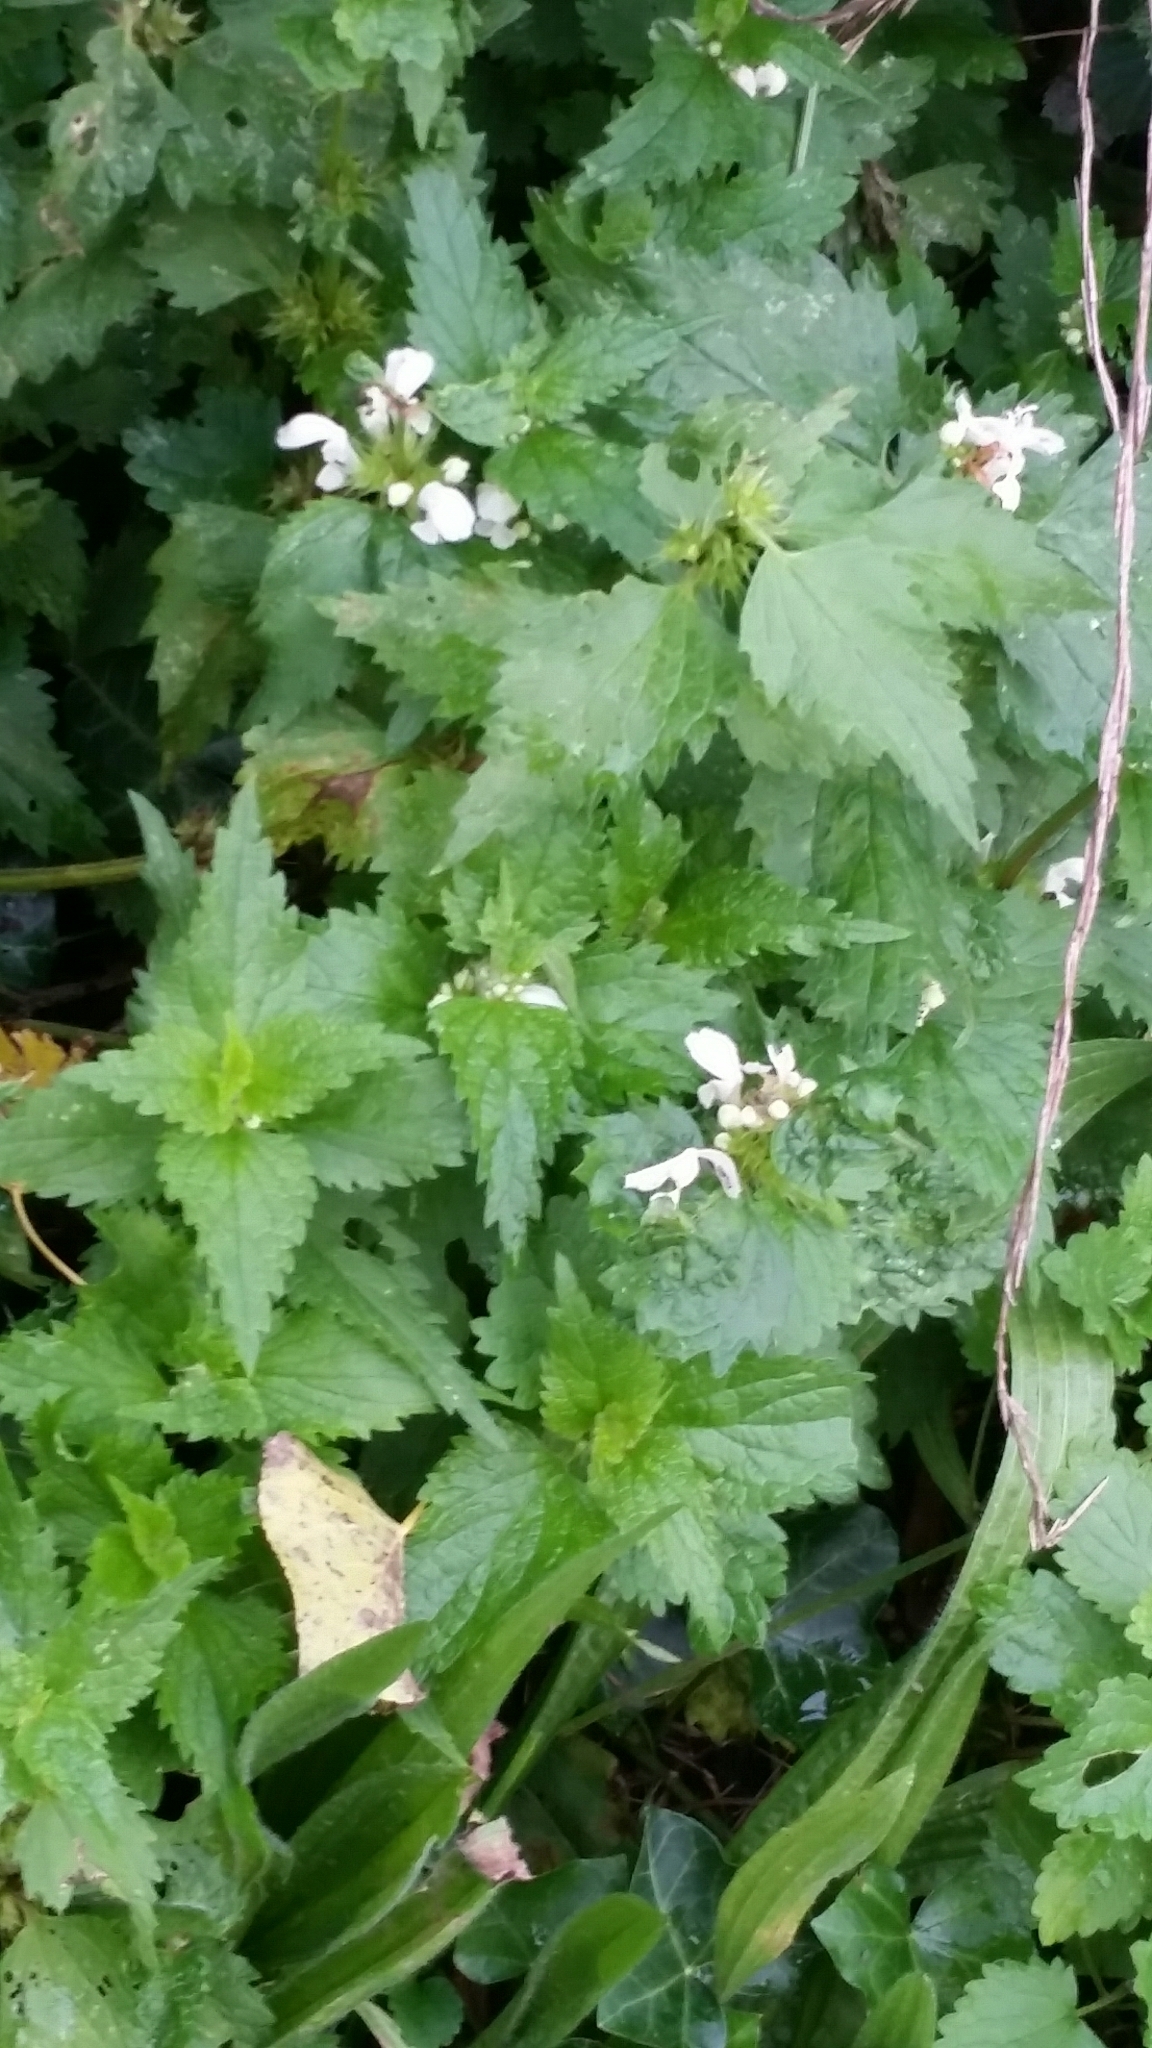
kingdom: Plantae
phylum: Tracheophyta
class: Magnoliopsida
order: Lamiales
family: Lamiaceae
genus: Lamium
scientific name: Lamium album
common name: White dead-nettle
